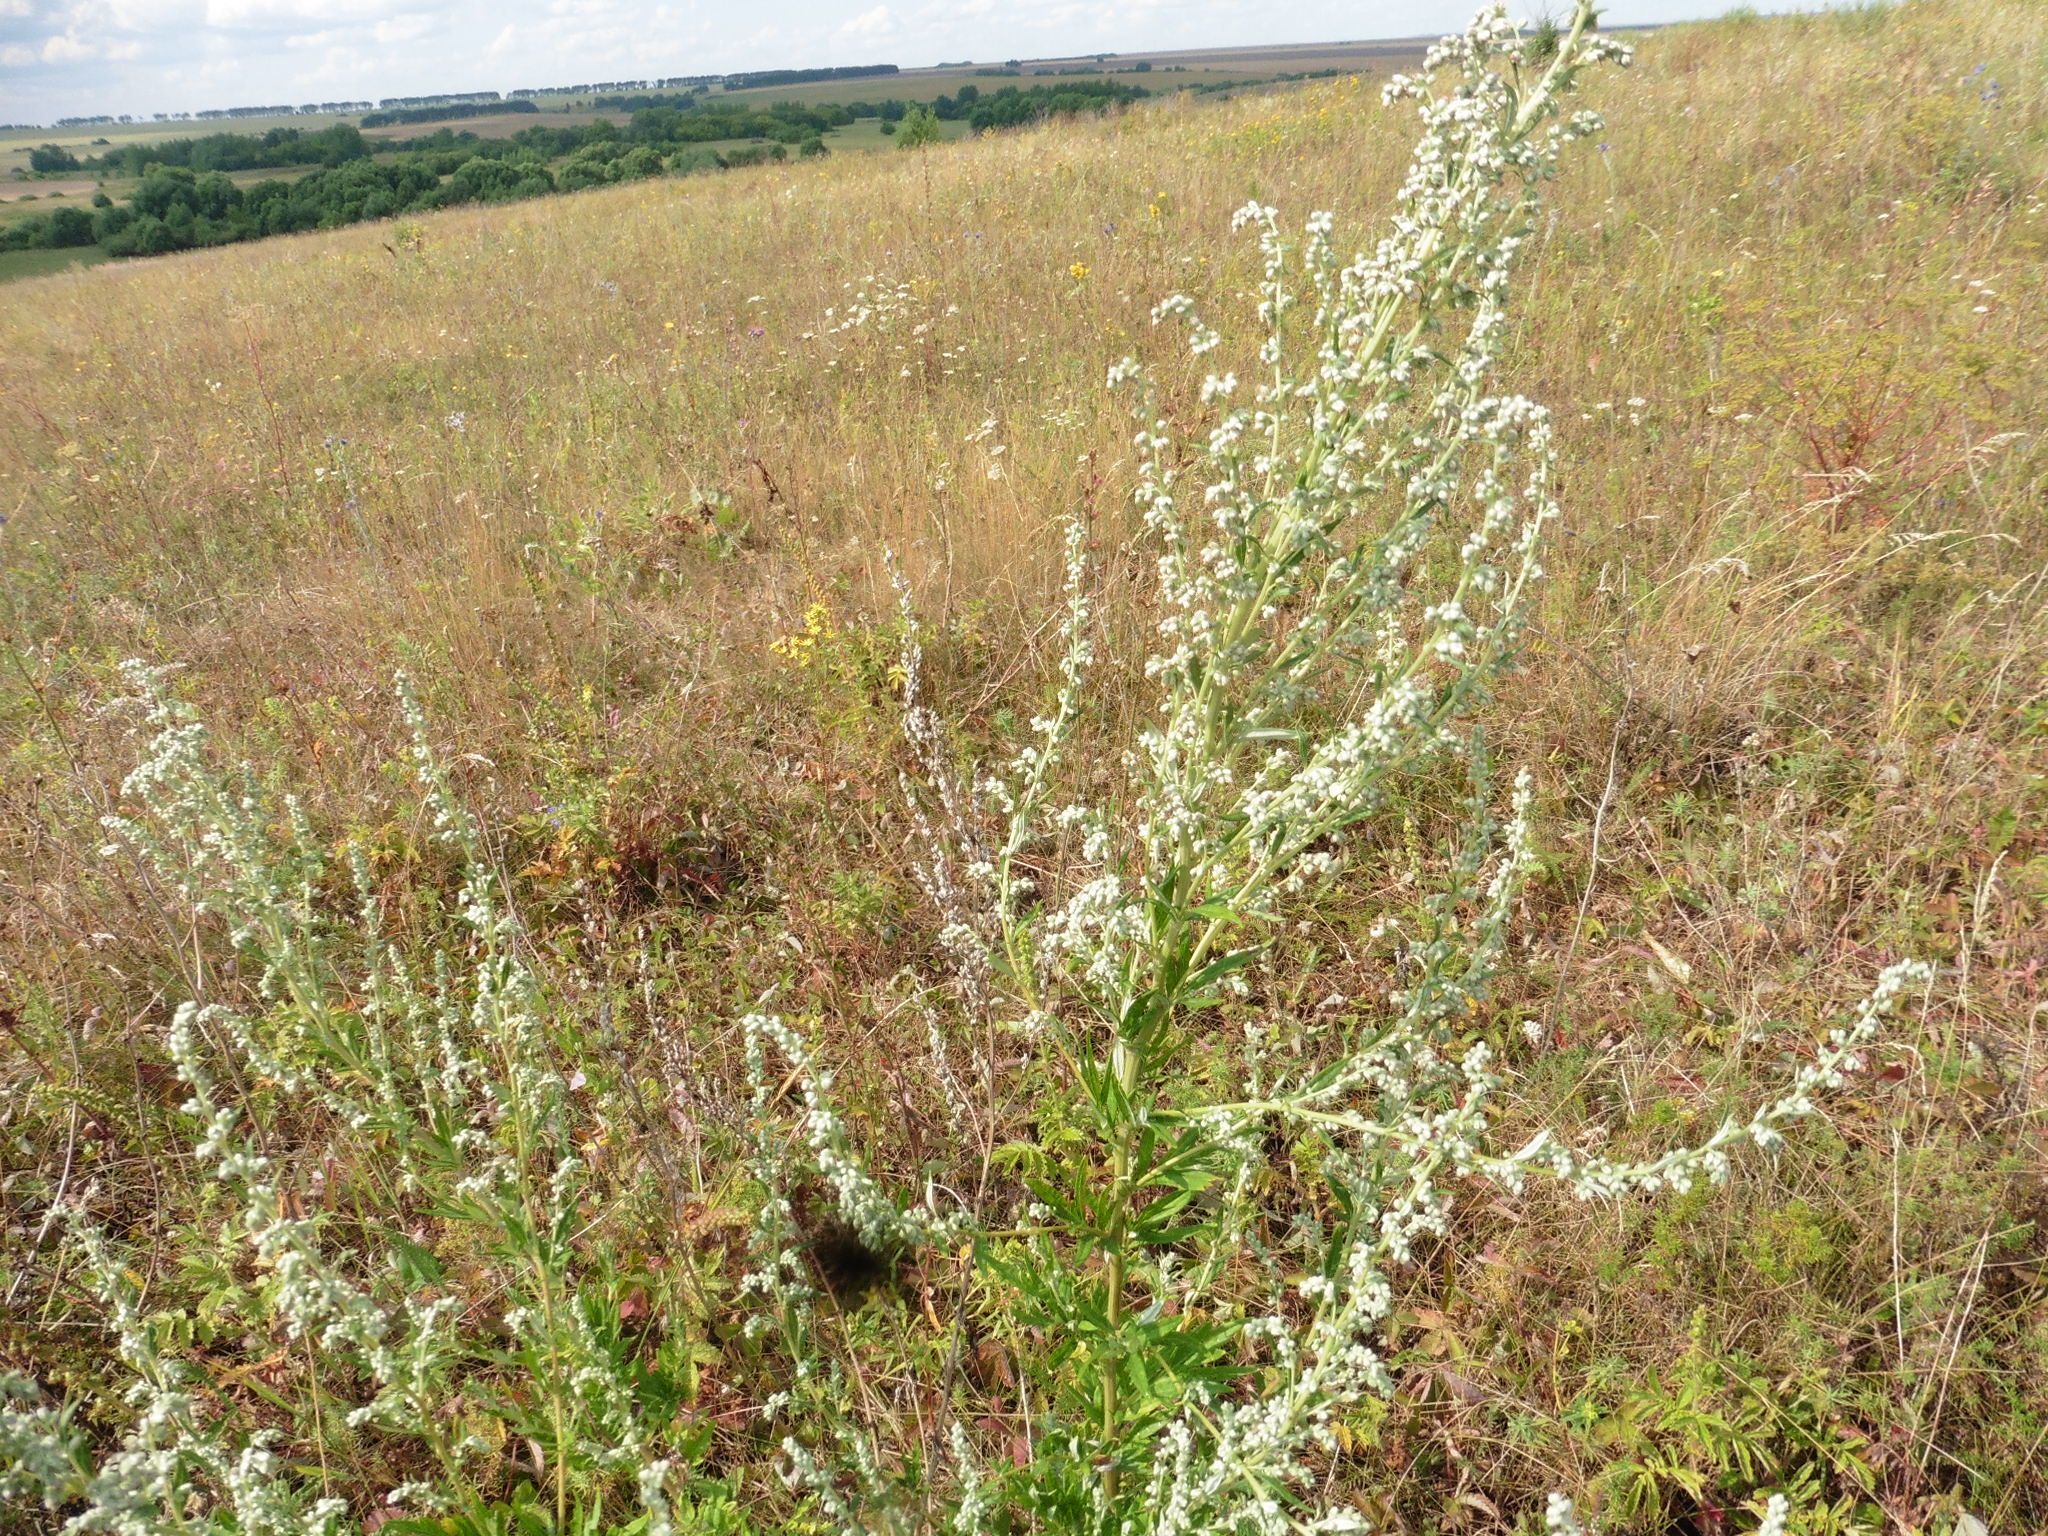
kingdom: Plantae
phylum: Tracheophyta
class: Magnoliopsida
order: Asterales
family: Asteraceae
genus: Artemisia
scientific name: Artemisia vulgaris
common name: Mugwort
